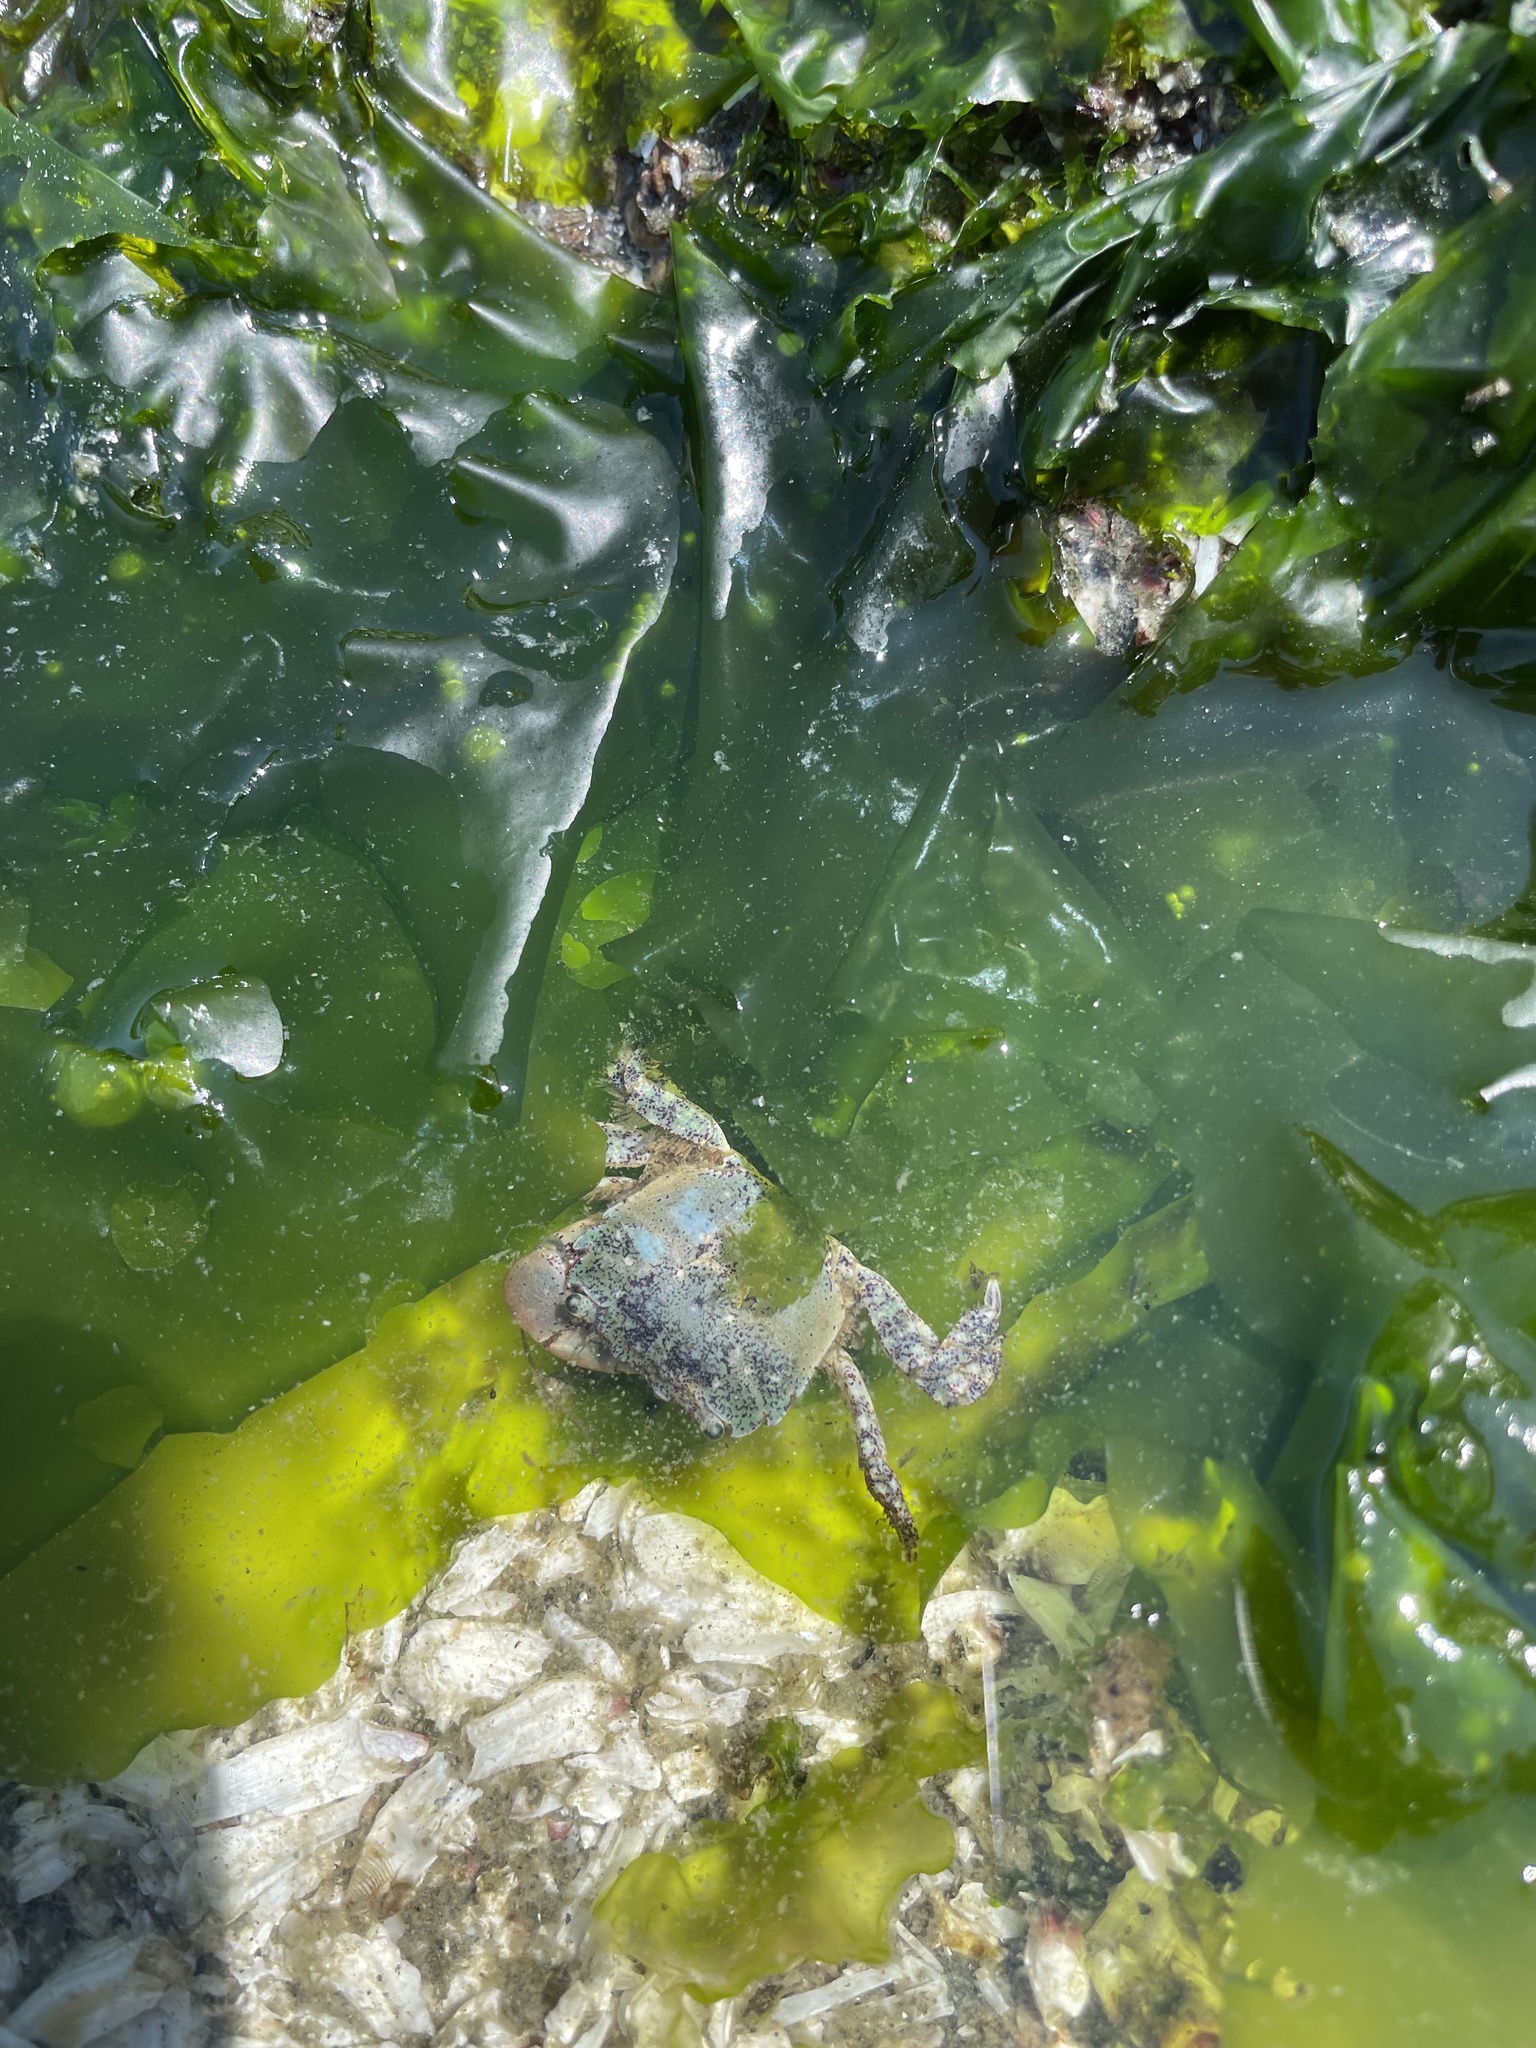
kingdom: Animalia
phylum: Arthropoda
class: Malacostraca
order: Decapoda
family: Varunidae
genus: Hemigrapsus
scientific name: Hemigrapsus oregonensis
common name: Yellow shore crab
